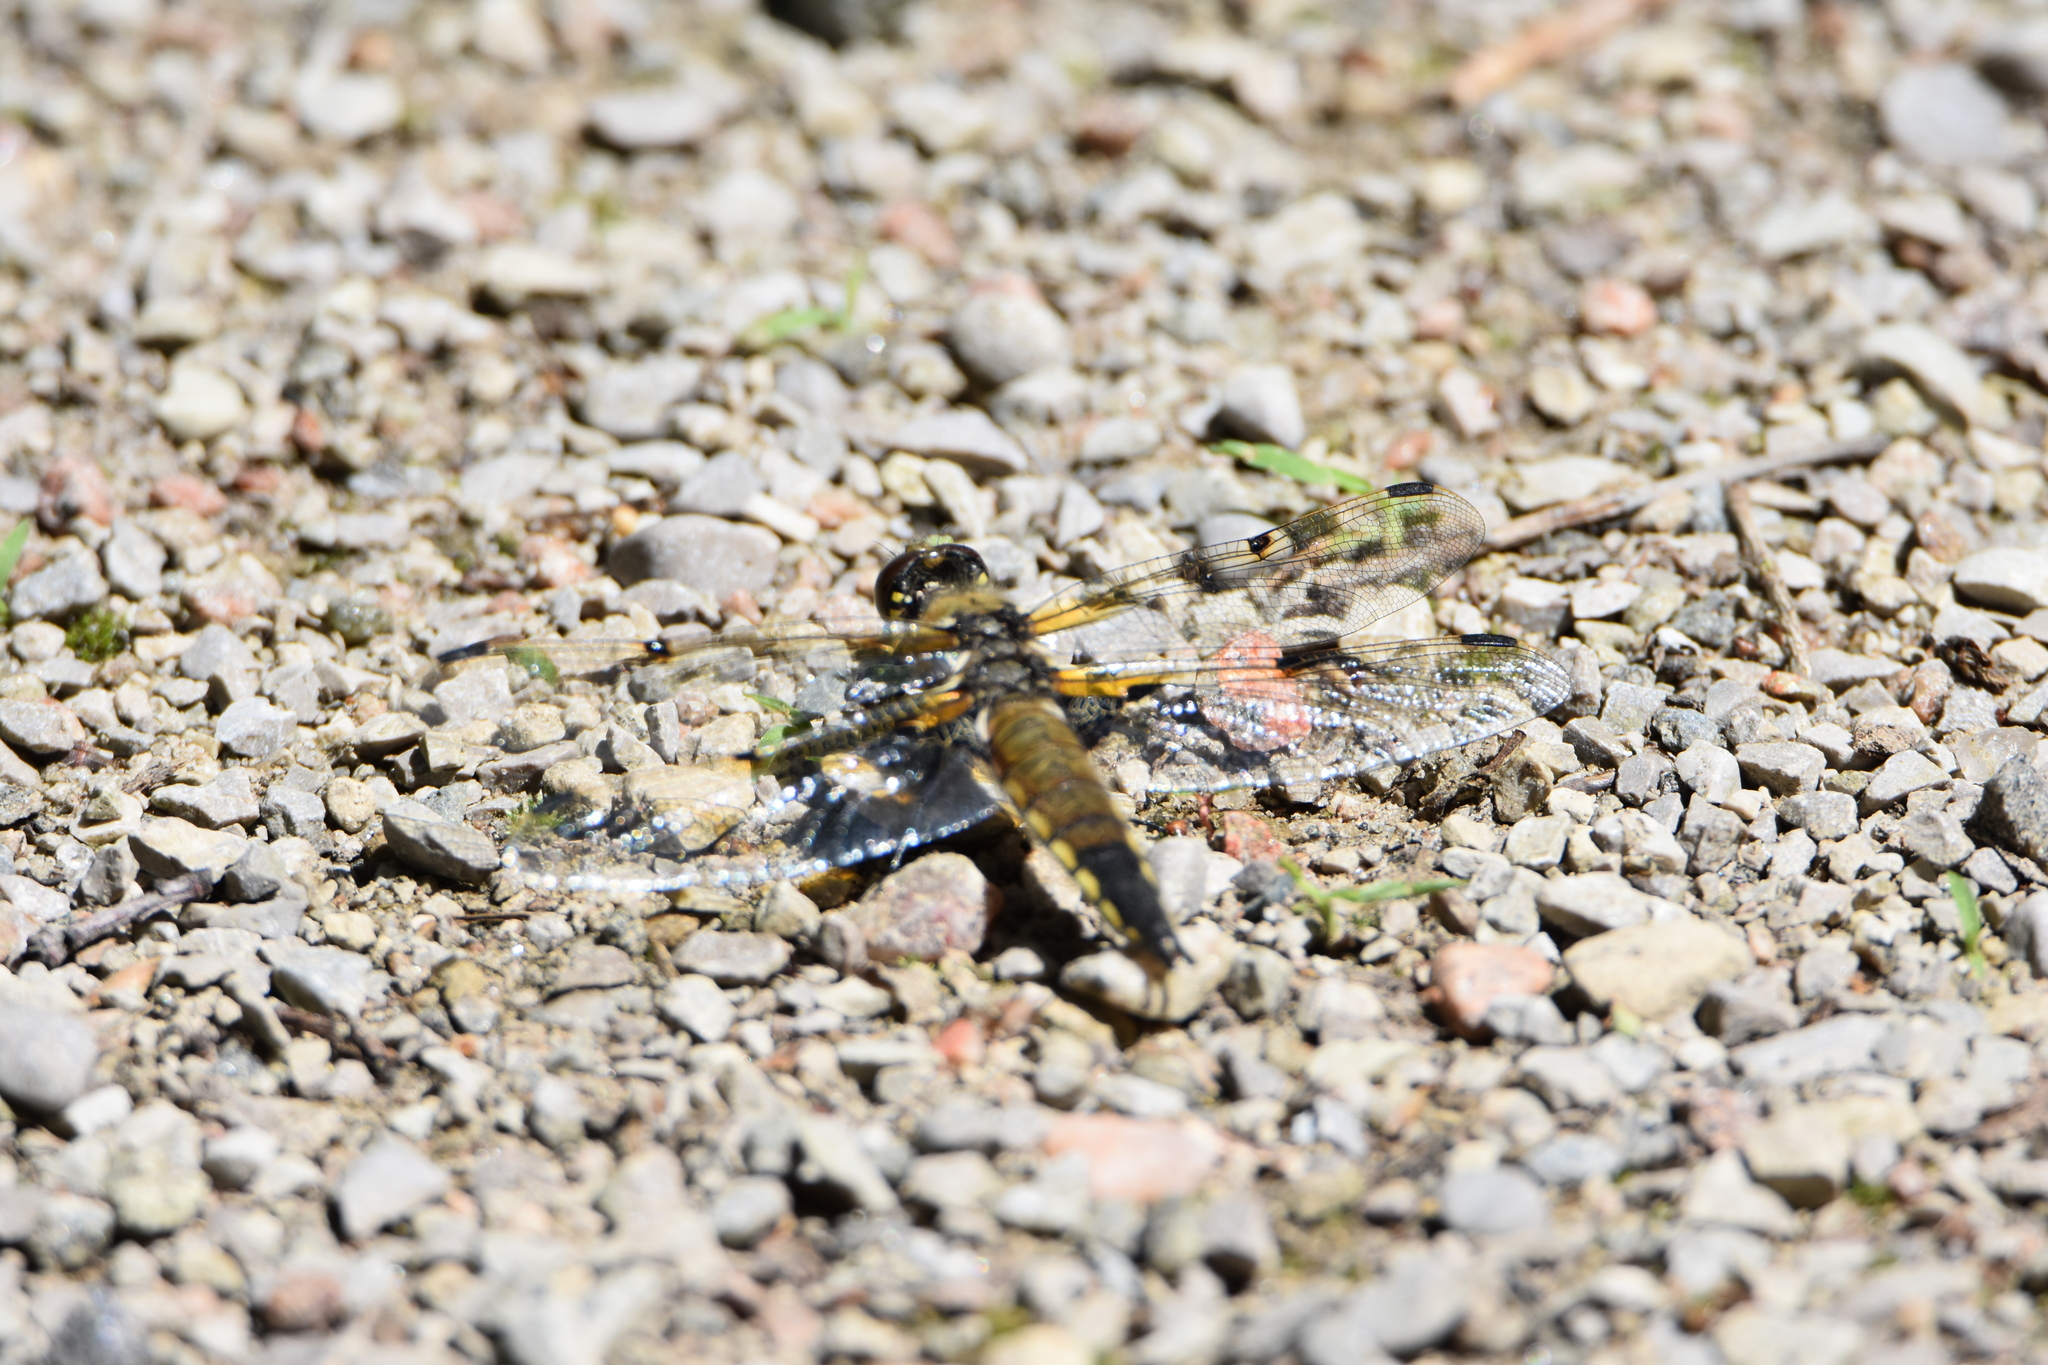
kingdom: Animalia
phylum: Arthropoda
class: Insecta
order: Odonata
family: Libellulidae
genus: Libellula
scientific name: Libellula quadrimaculata
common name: Four-spotted chaser
